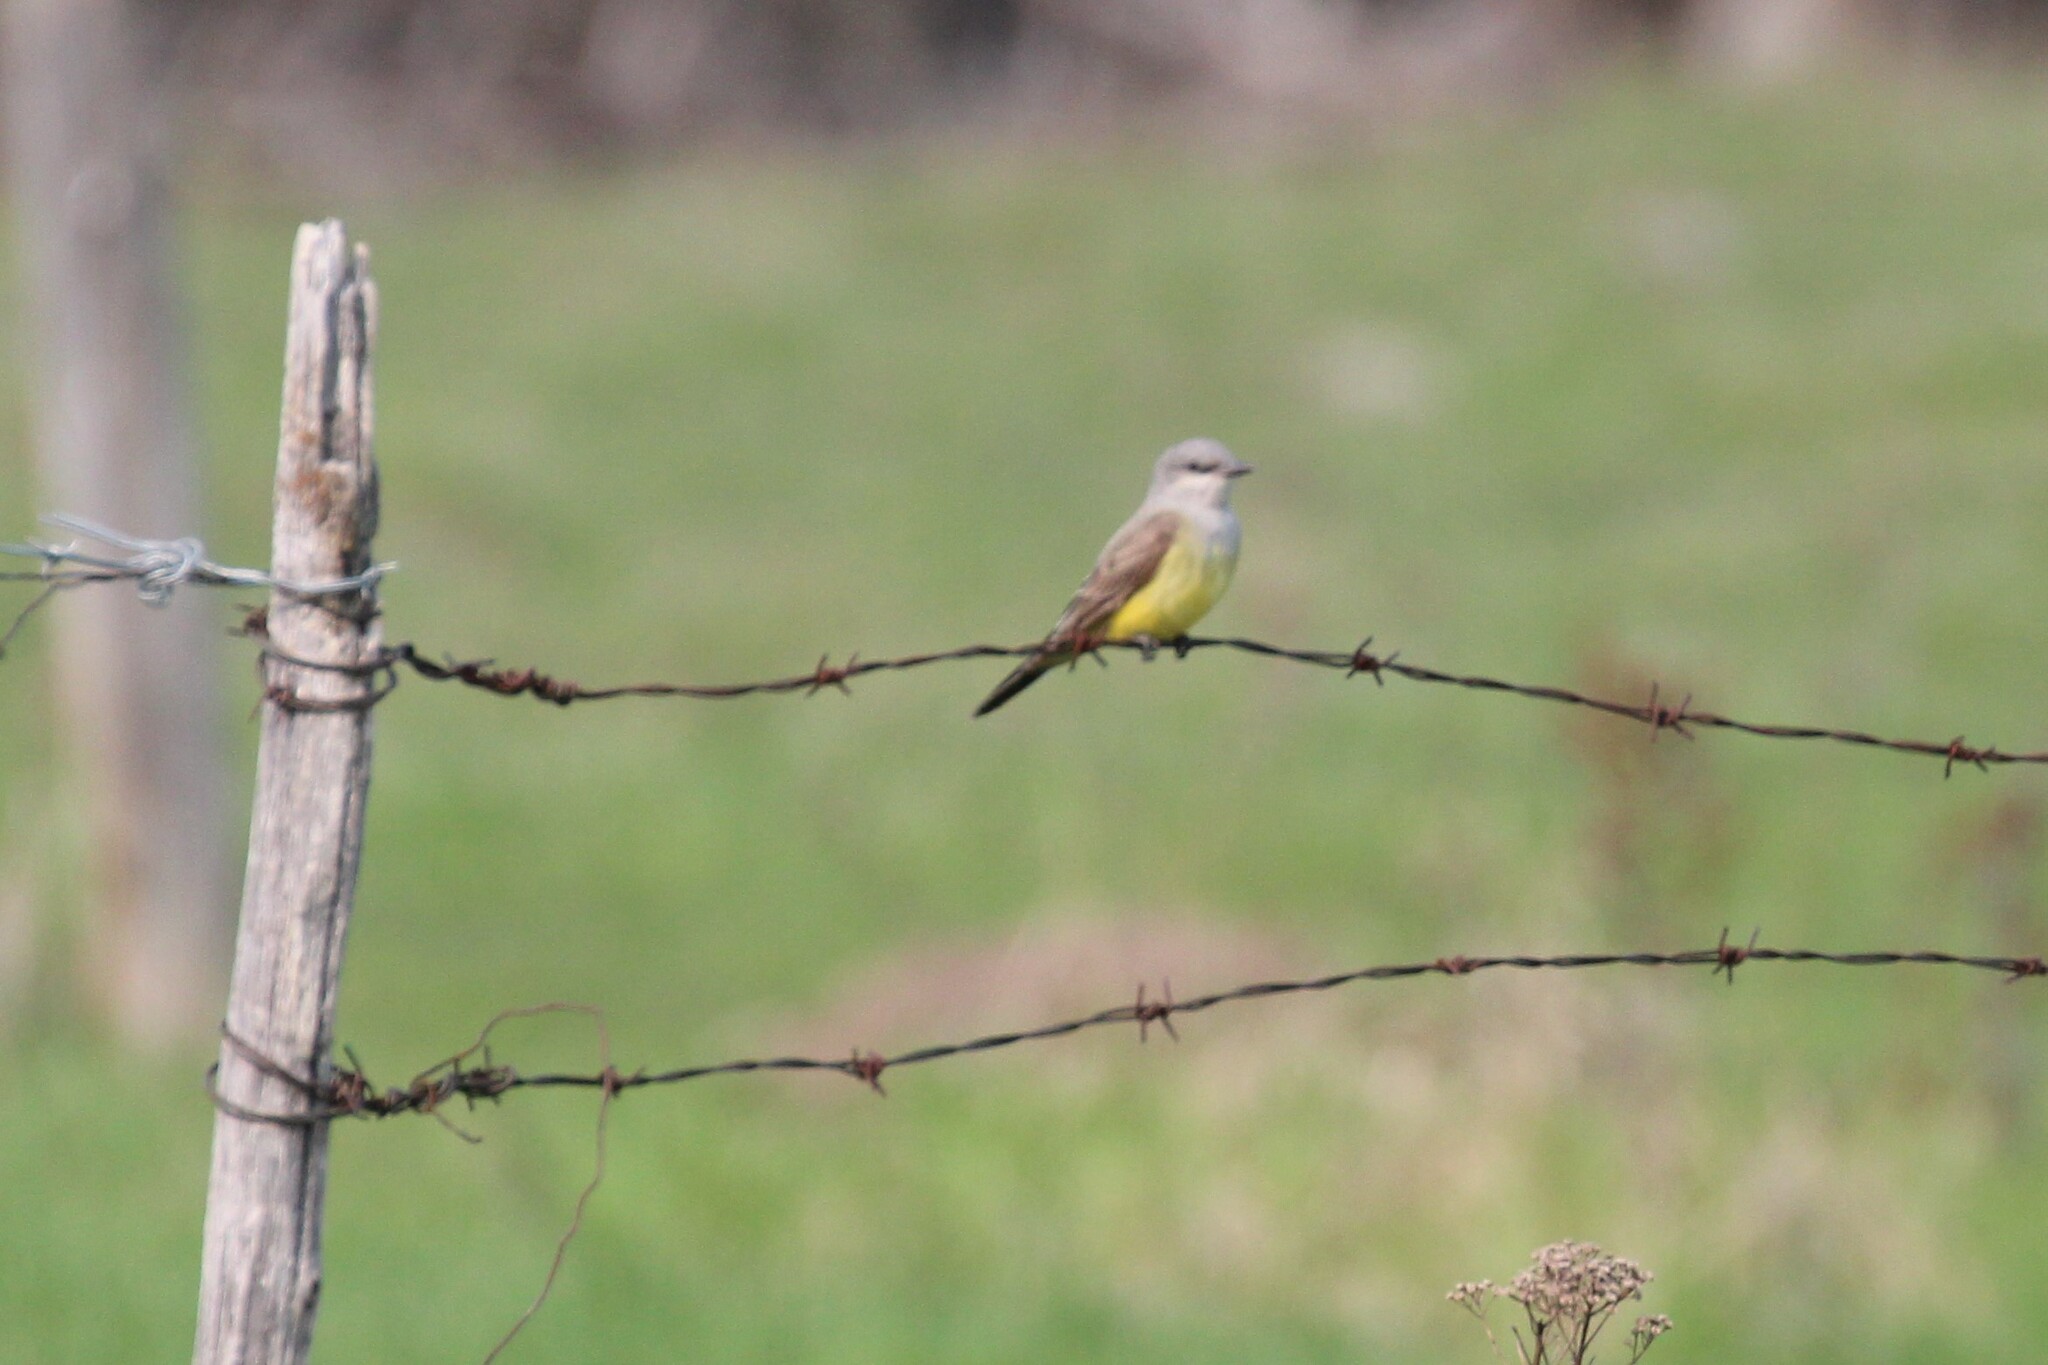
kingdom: Animalia
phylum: Chordata
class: Aves
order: Passeriformes
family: Tyrannidae
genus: Tyrannus
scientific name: Tyrannus verticalis
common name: Western kingbird
